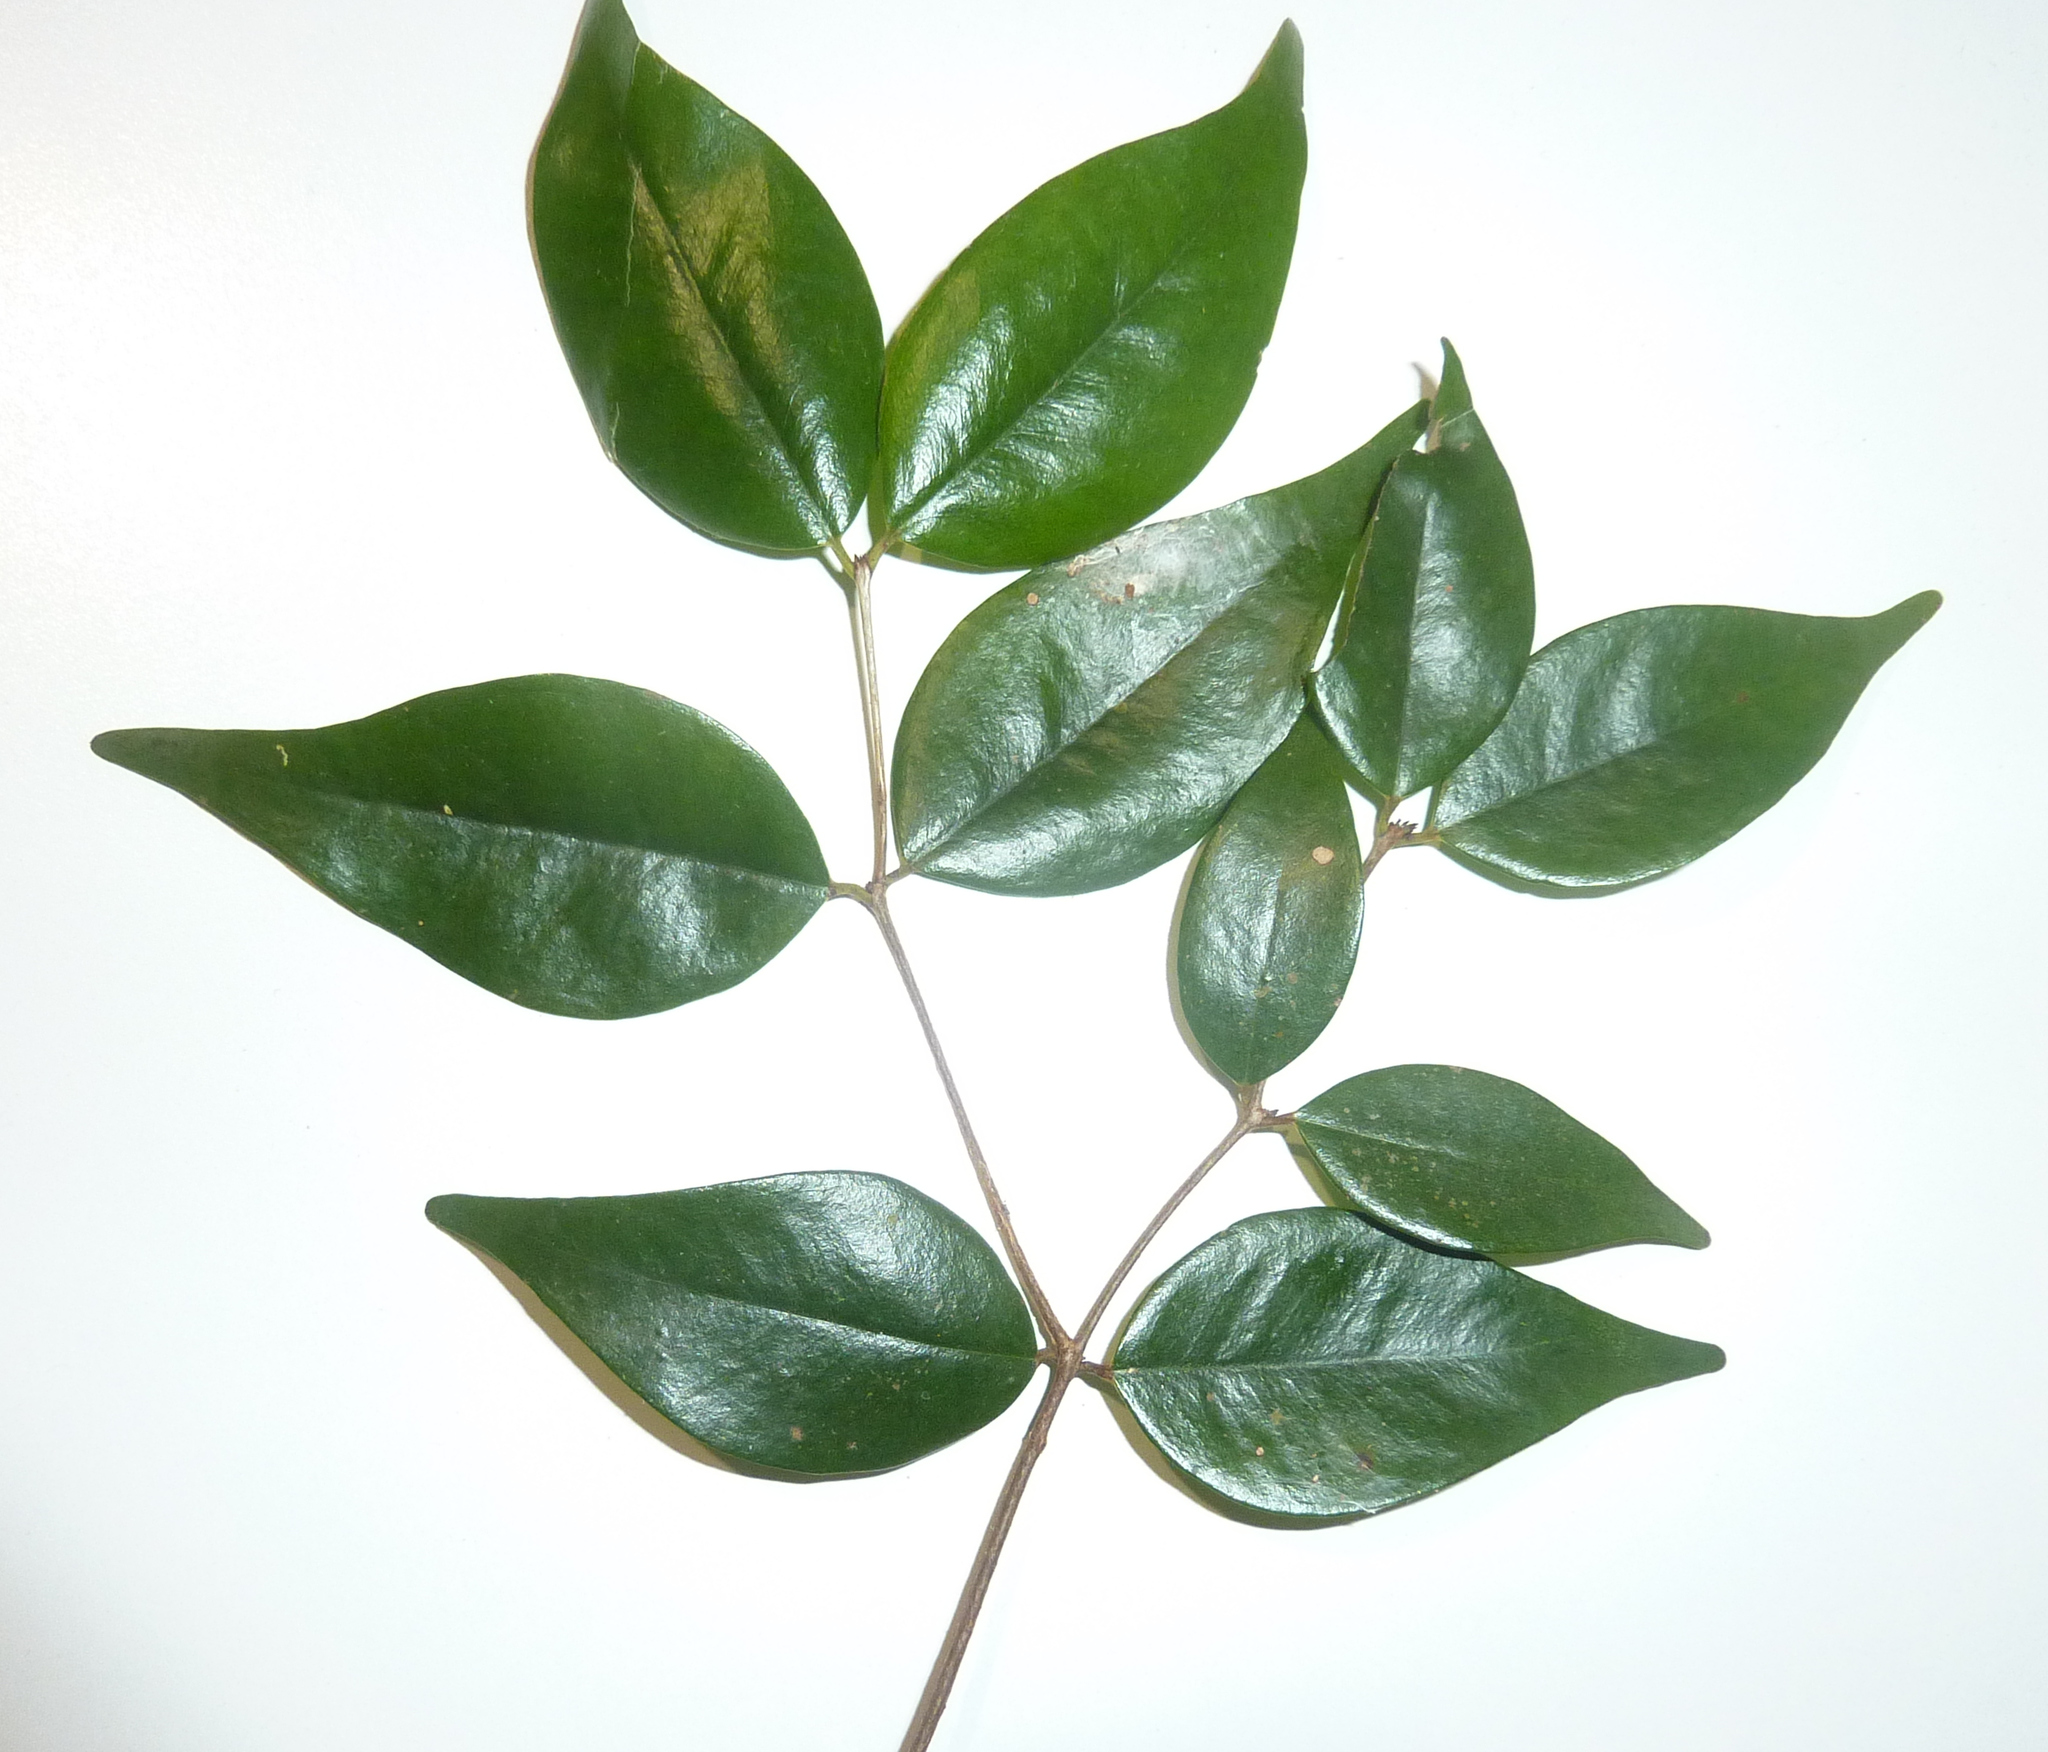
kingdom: Plantae
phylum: Tracheophyta
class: Magnoliopsida
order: Myrtales
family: Myrtaceae
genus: Decaspermum
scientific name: Decaspermum humile
